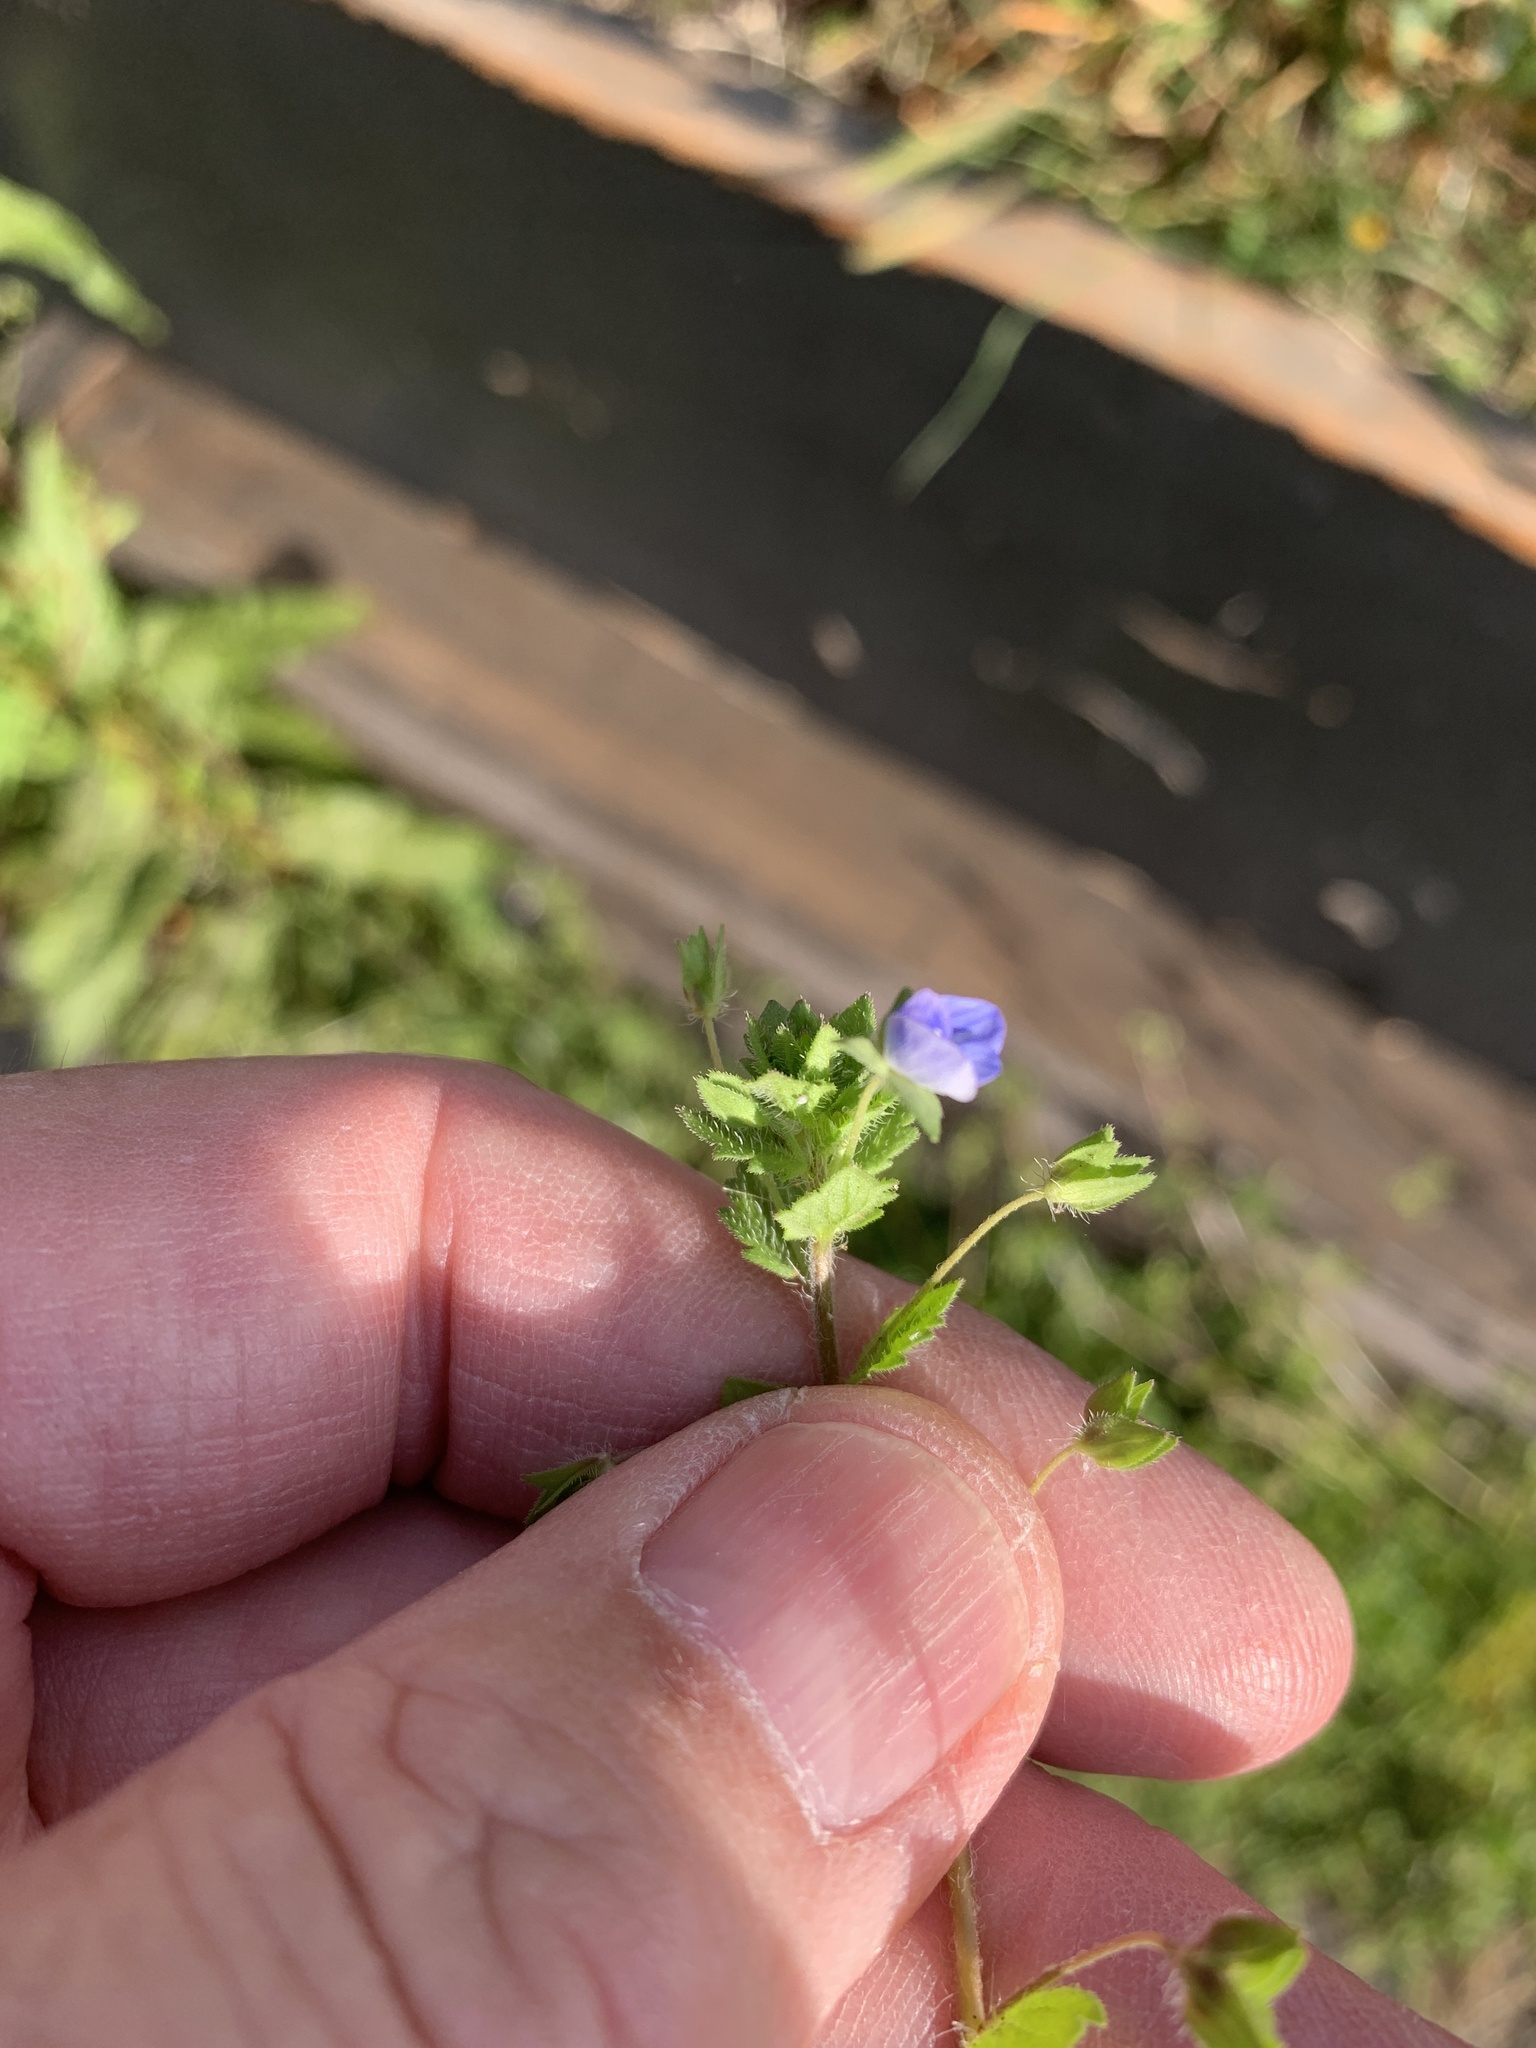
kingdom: Plantae
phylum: Tracheophyta
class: Magnoliopsida
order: Lamiales
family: Plantaginaceae
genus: Veronica
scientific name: Veronica persica
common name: Common field-speedwell
